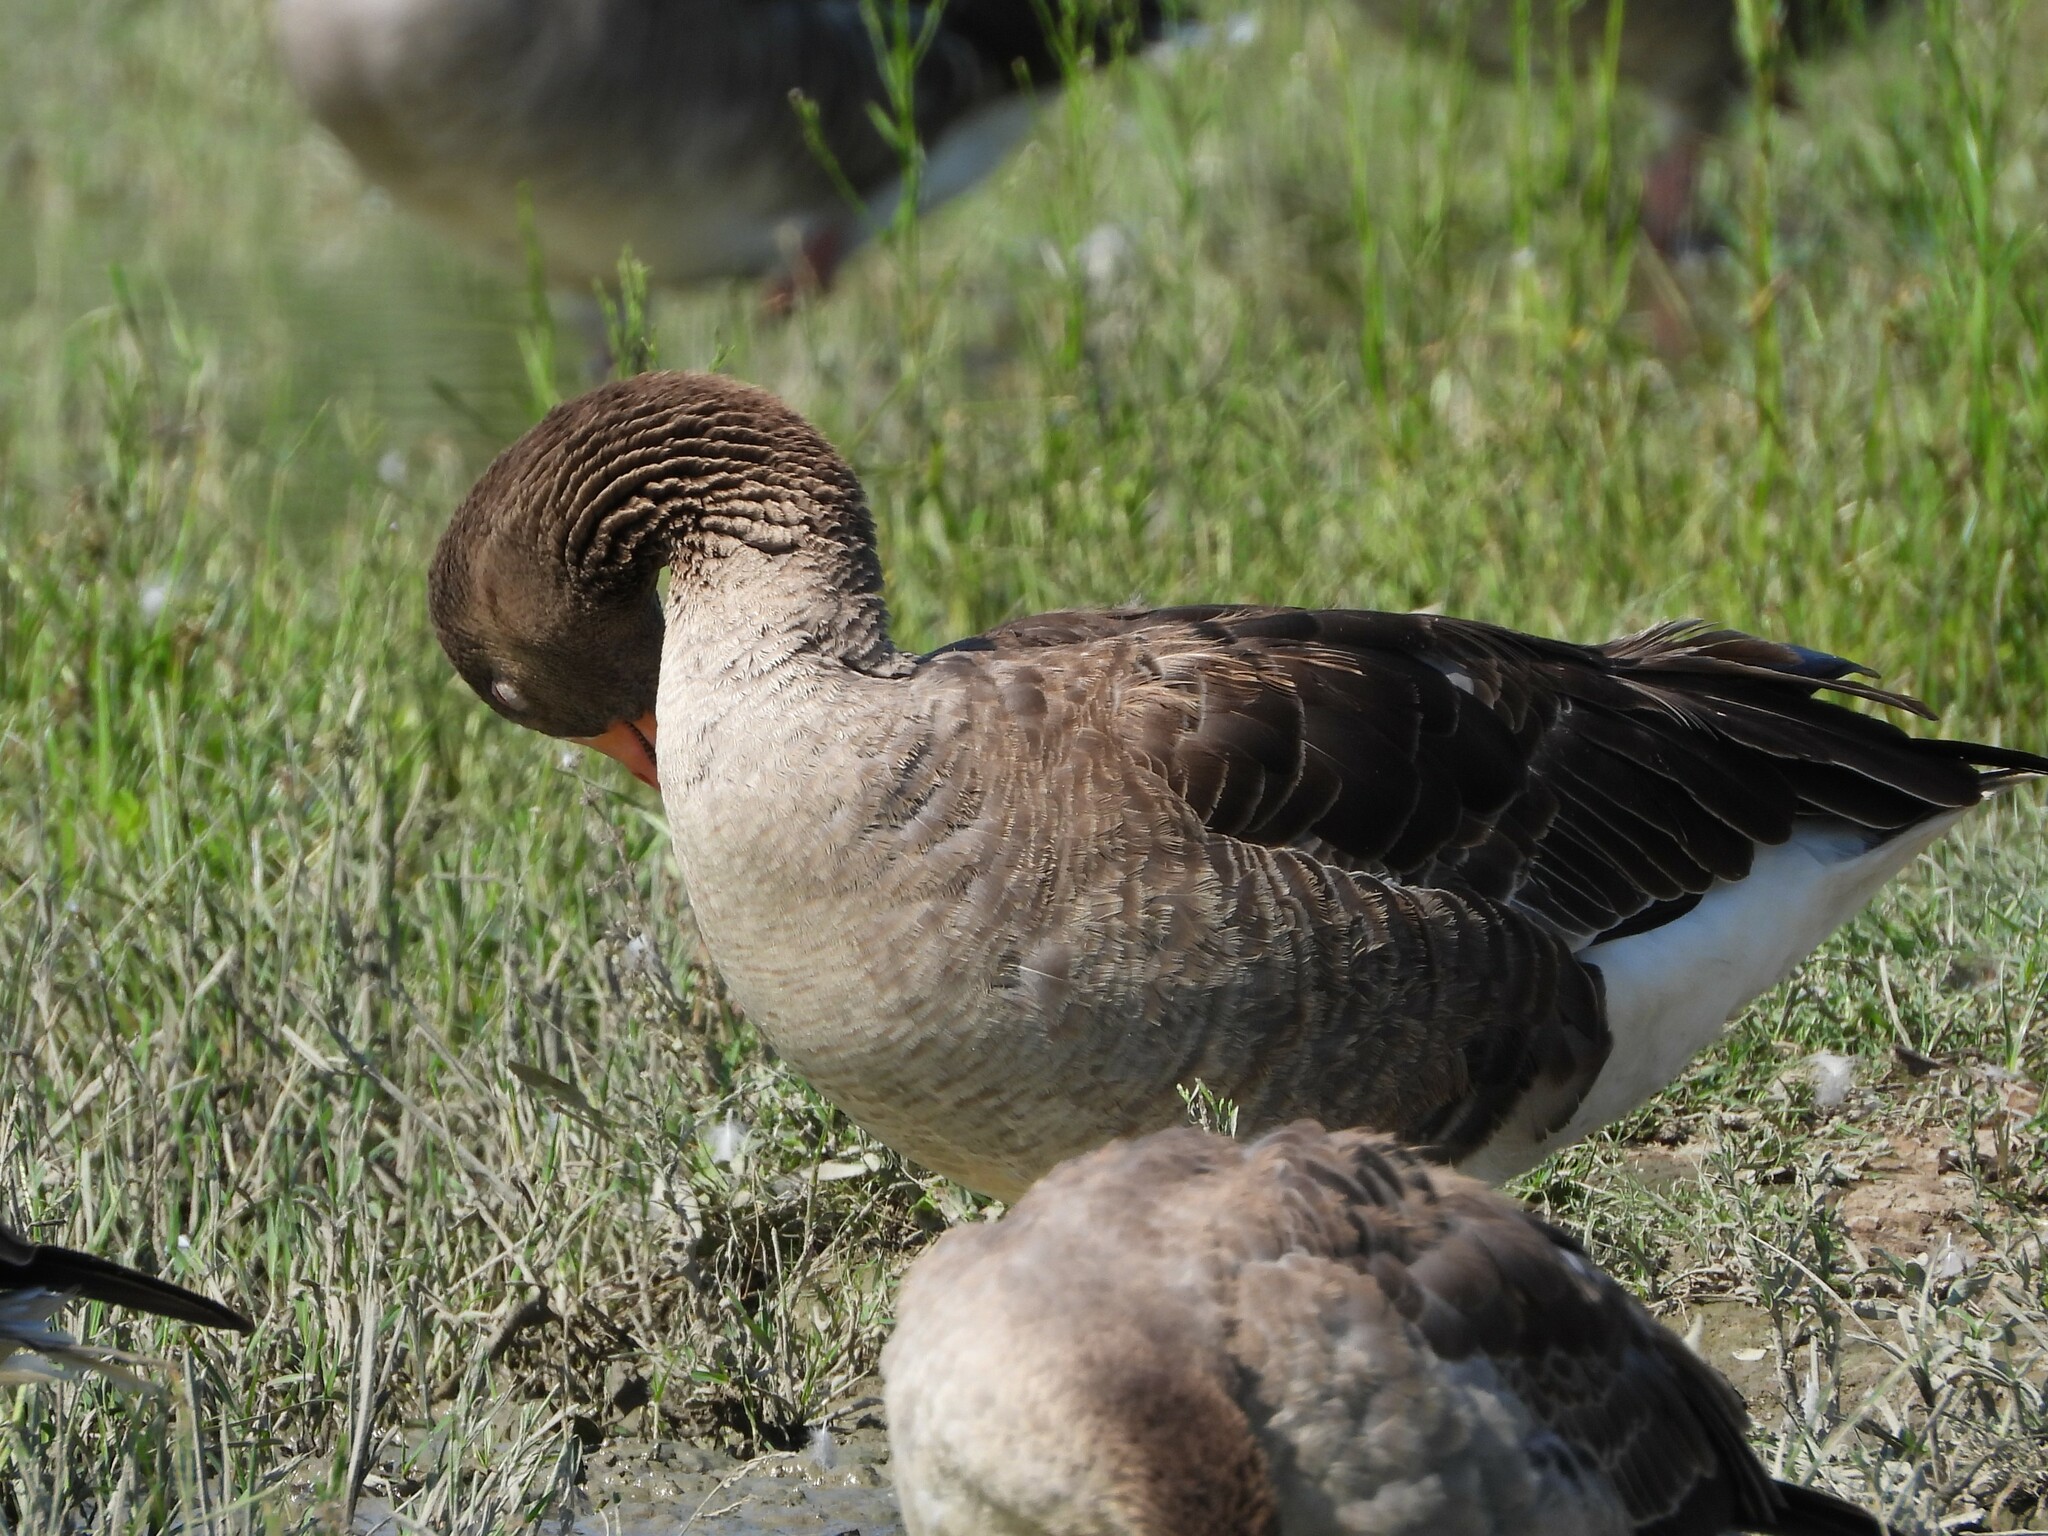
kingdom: Animalia
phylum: Chordata
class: Aves
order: Anseriformes
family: Anatidae
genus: Anser
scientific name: Anser anser
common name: Greylag goose
